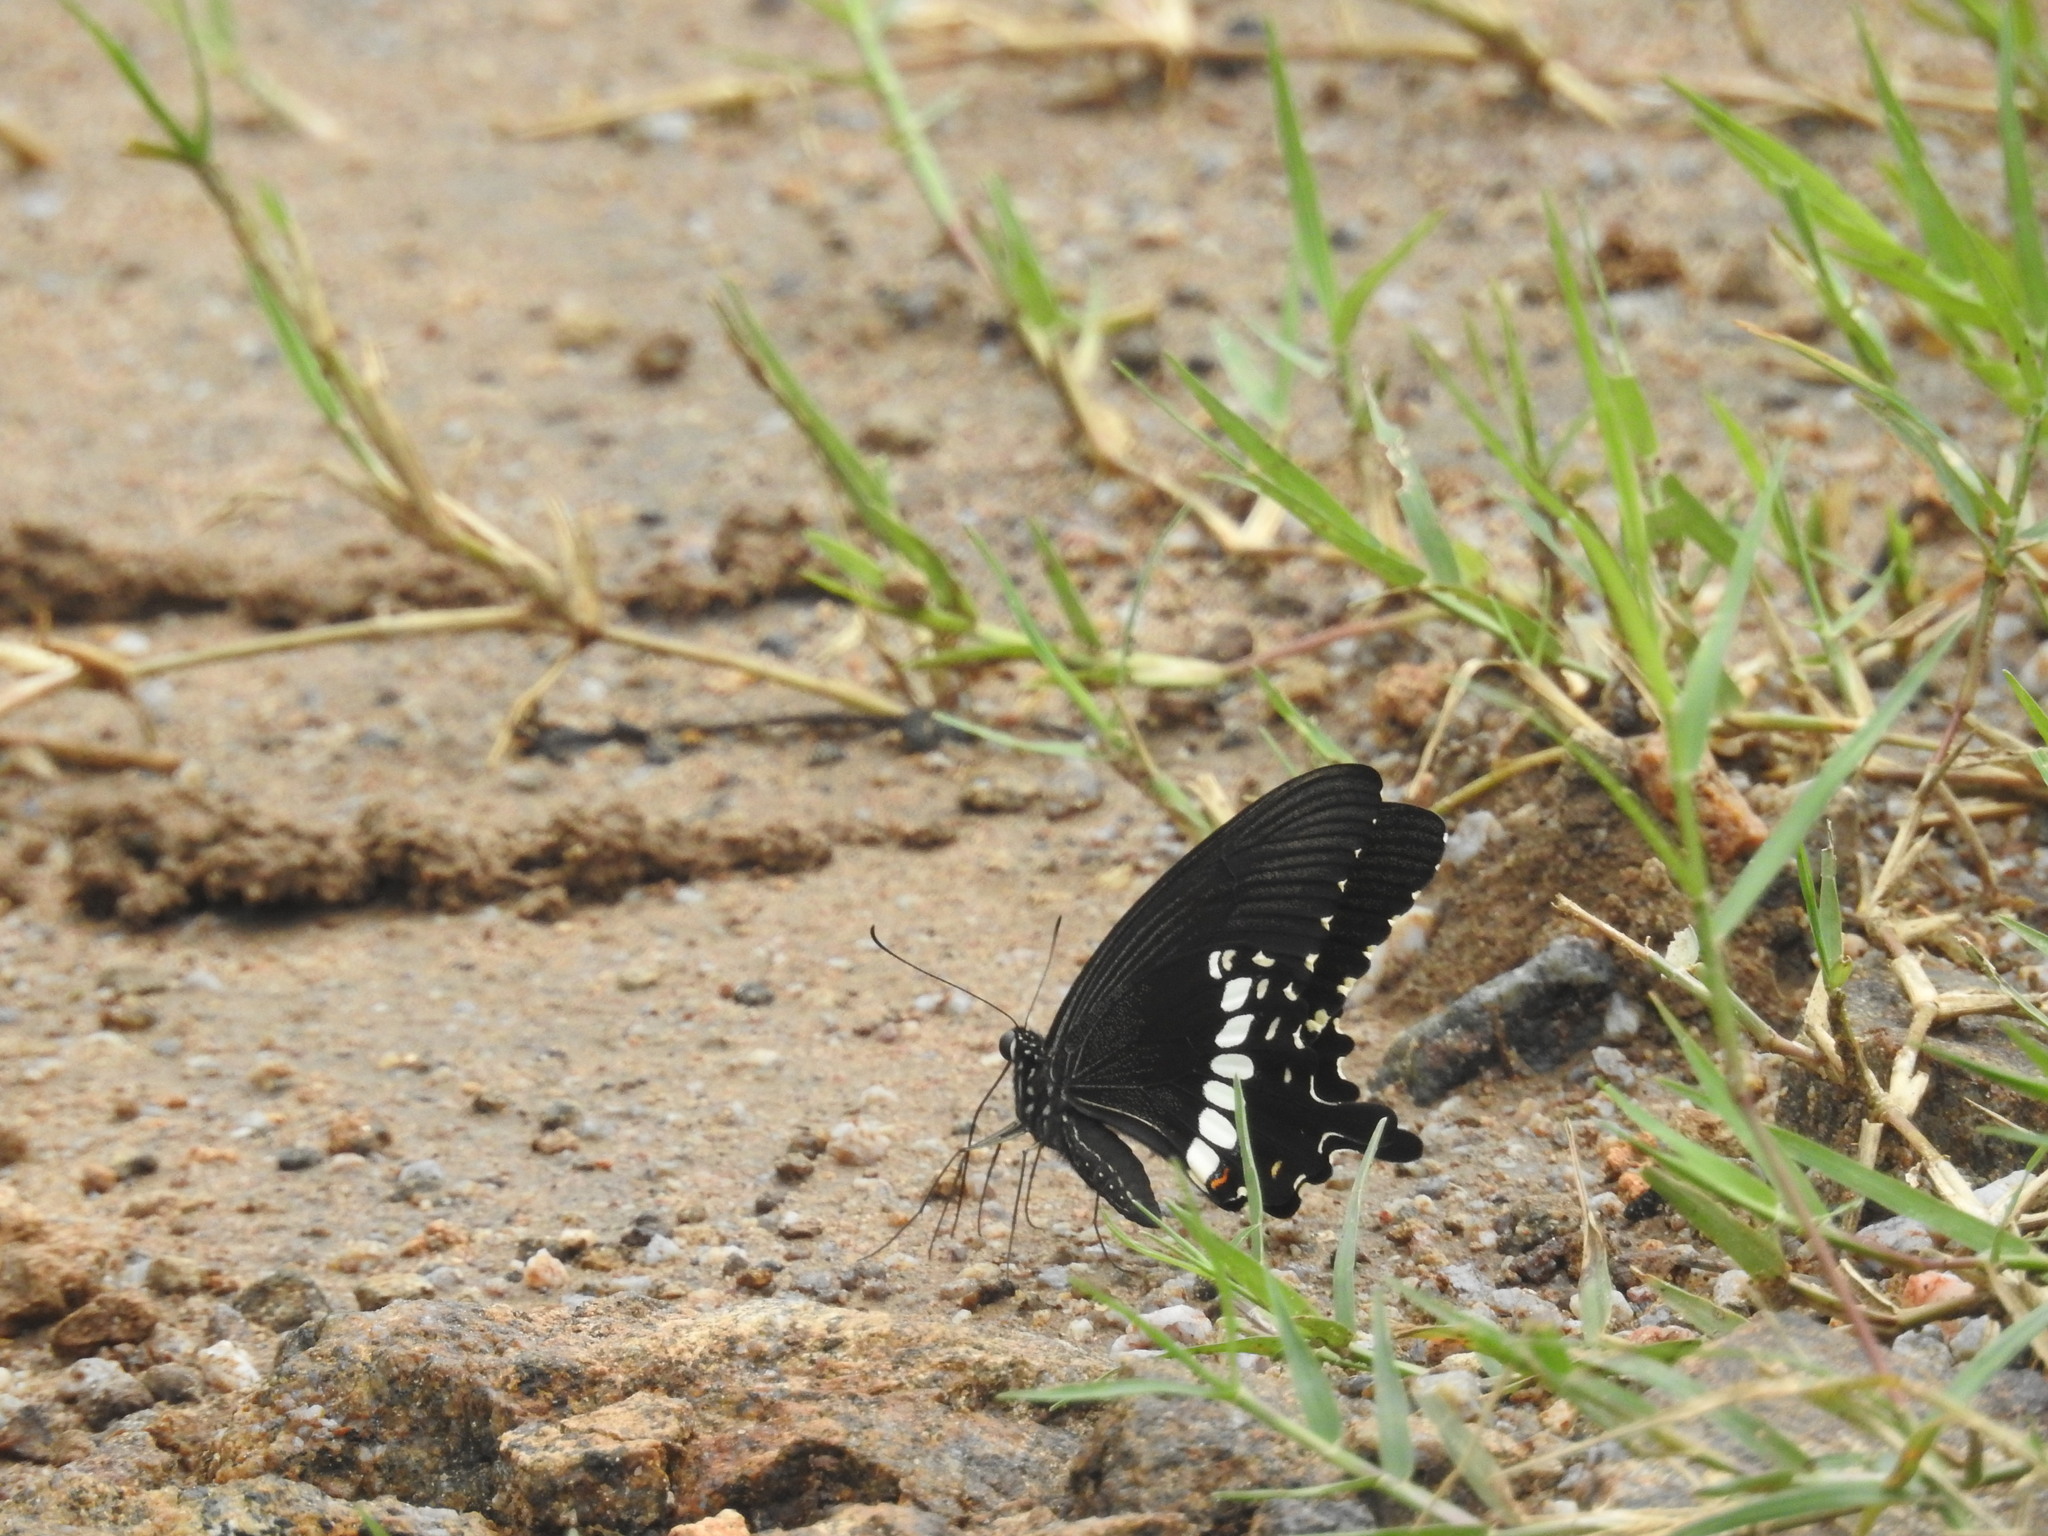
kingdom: Animalia
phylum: Arthropoda
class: Insecta
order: Lepidoptera
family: Papilionidae
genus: Papilio
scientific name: Papilio polytes
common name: Common mormon
